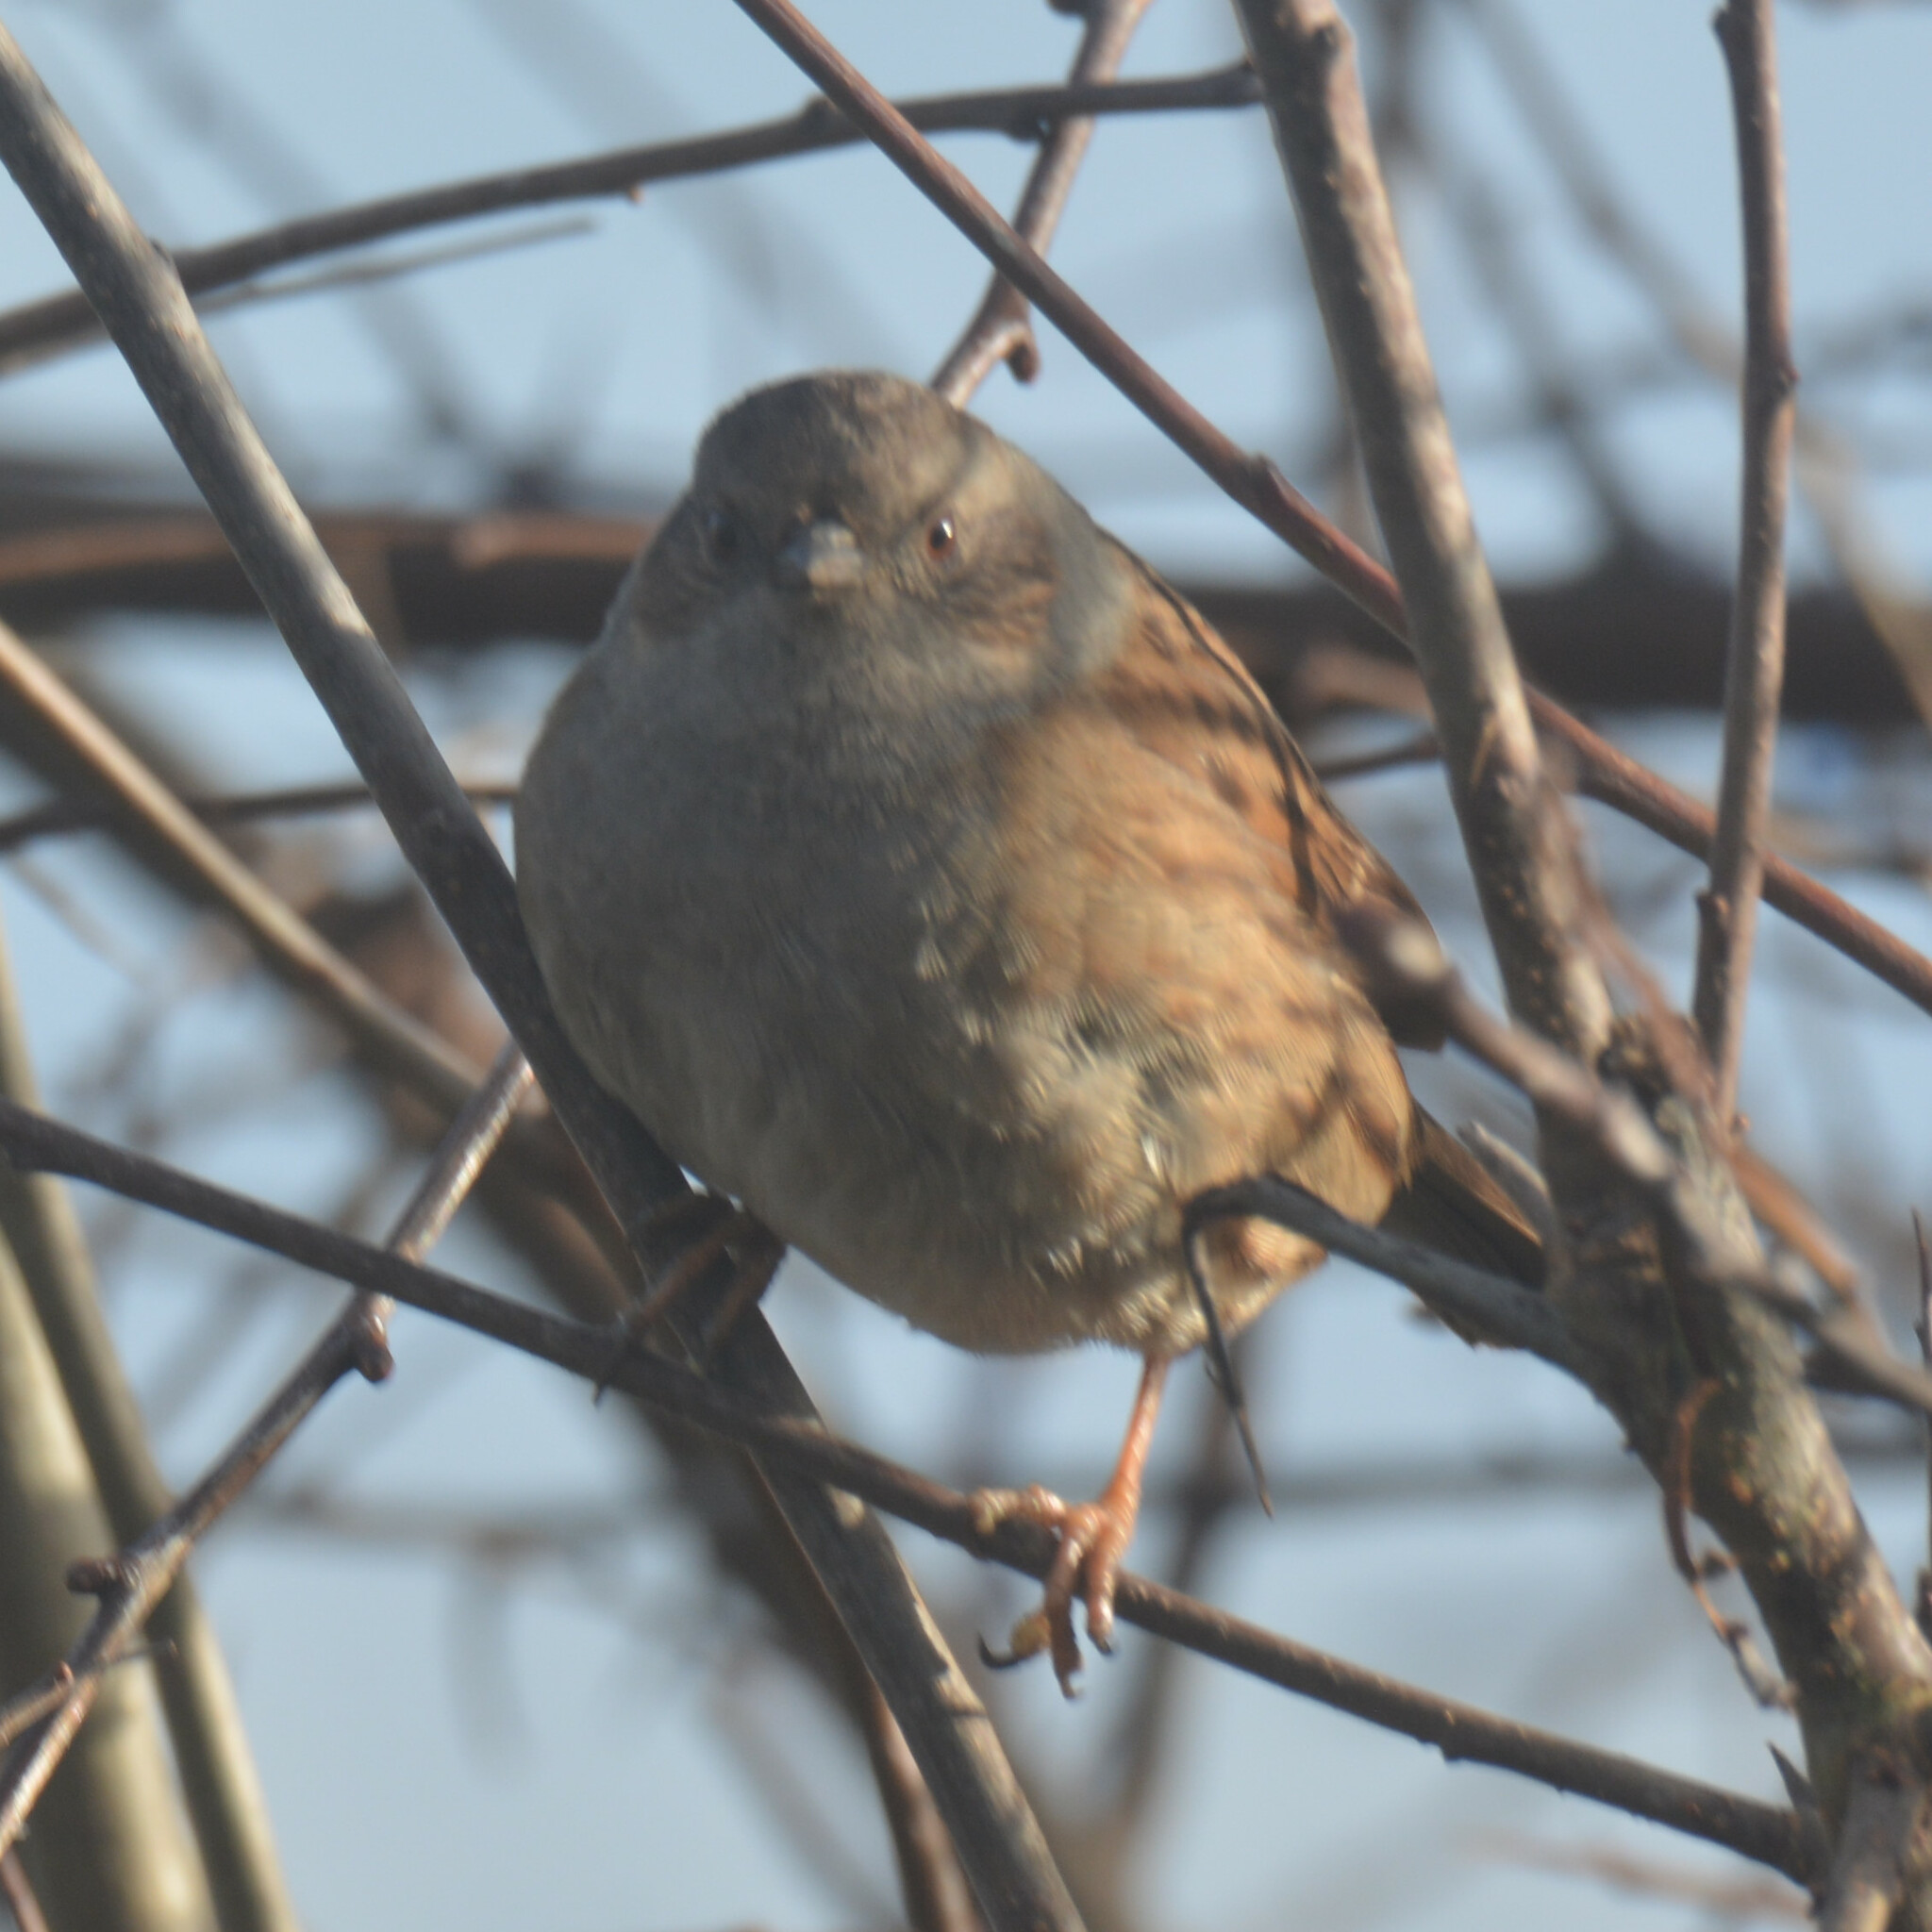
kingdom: Animalia
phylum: Chordata
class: Aves
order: Passeriformes
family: Prunellidae
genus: Prunella
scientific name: Prunella modularis
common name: Dunnock
